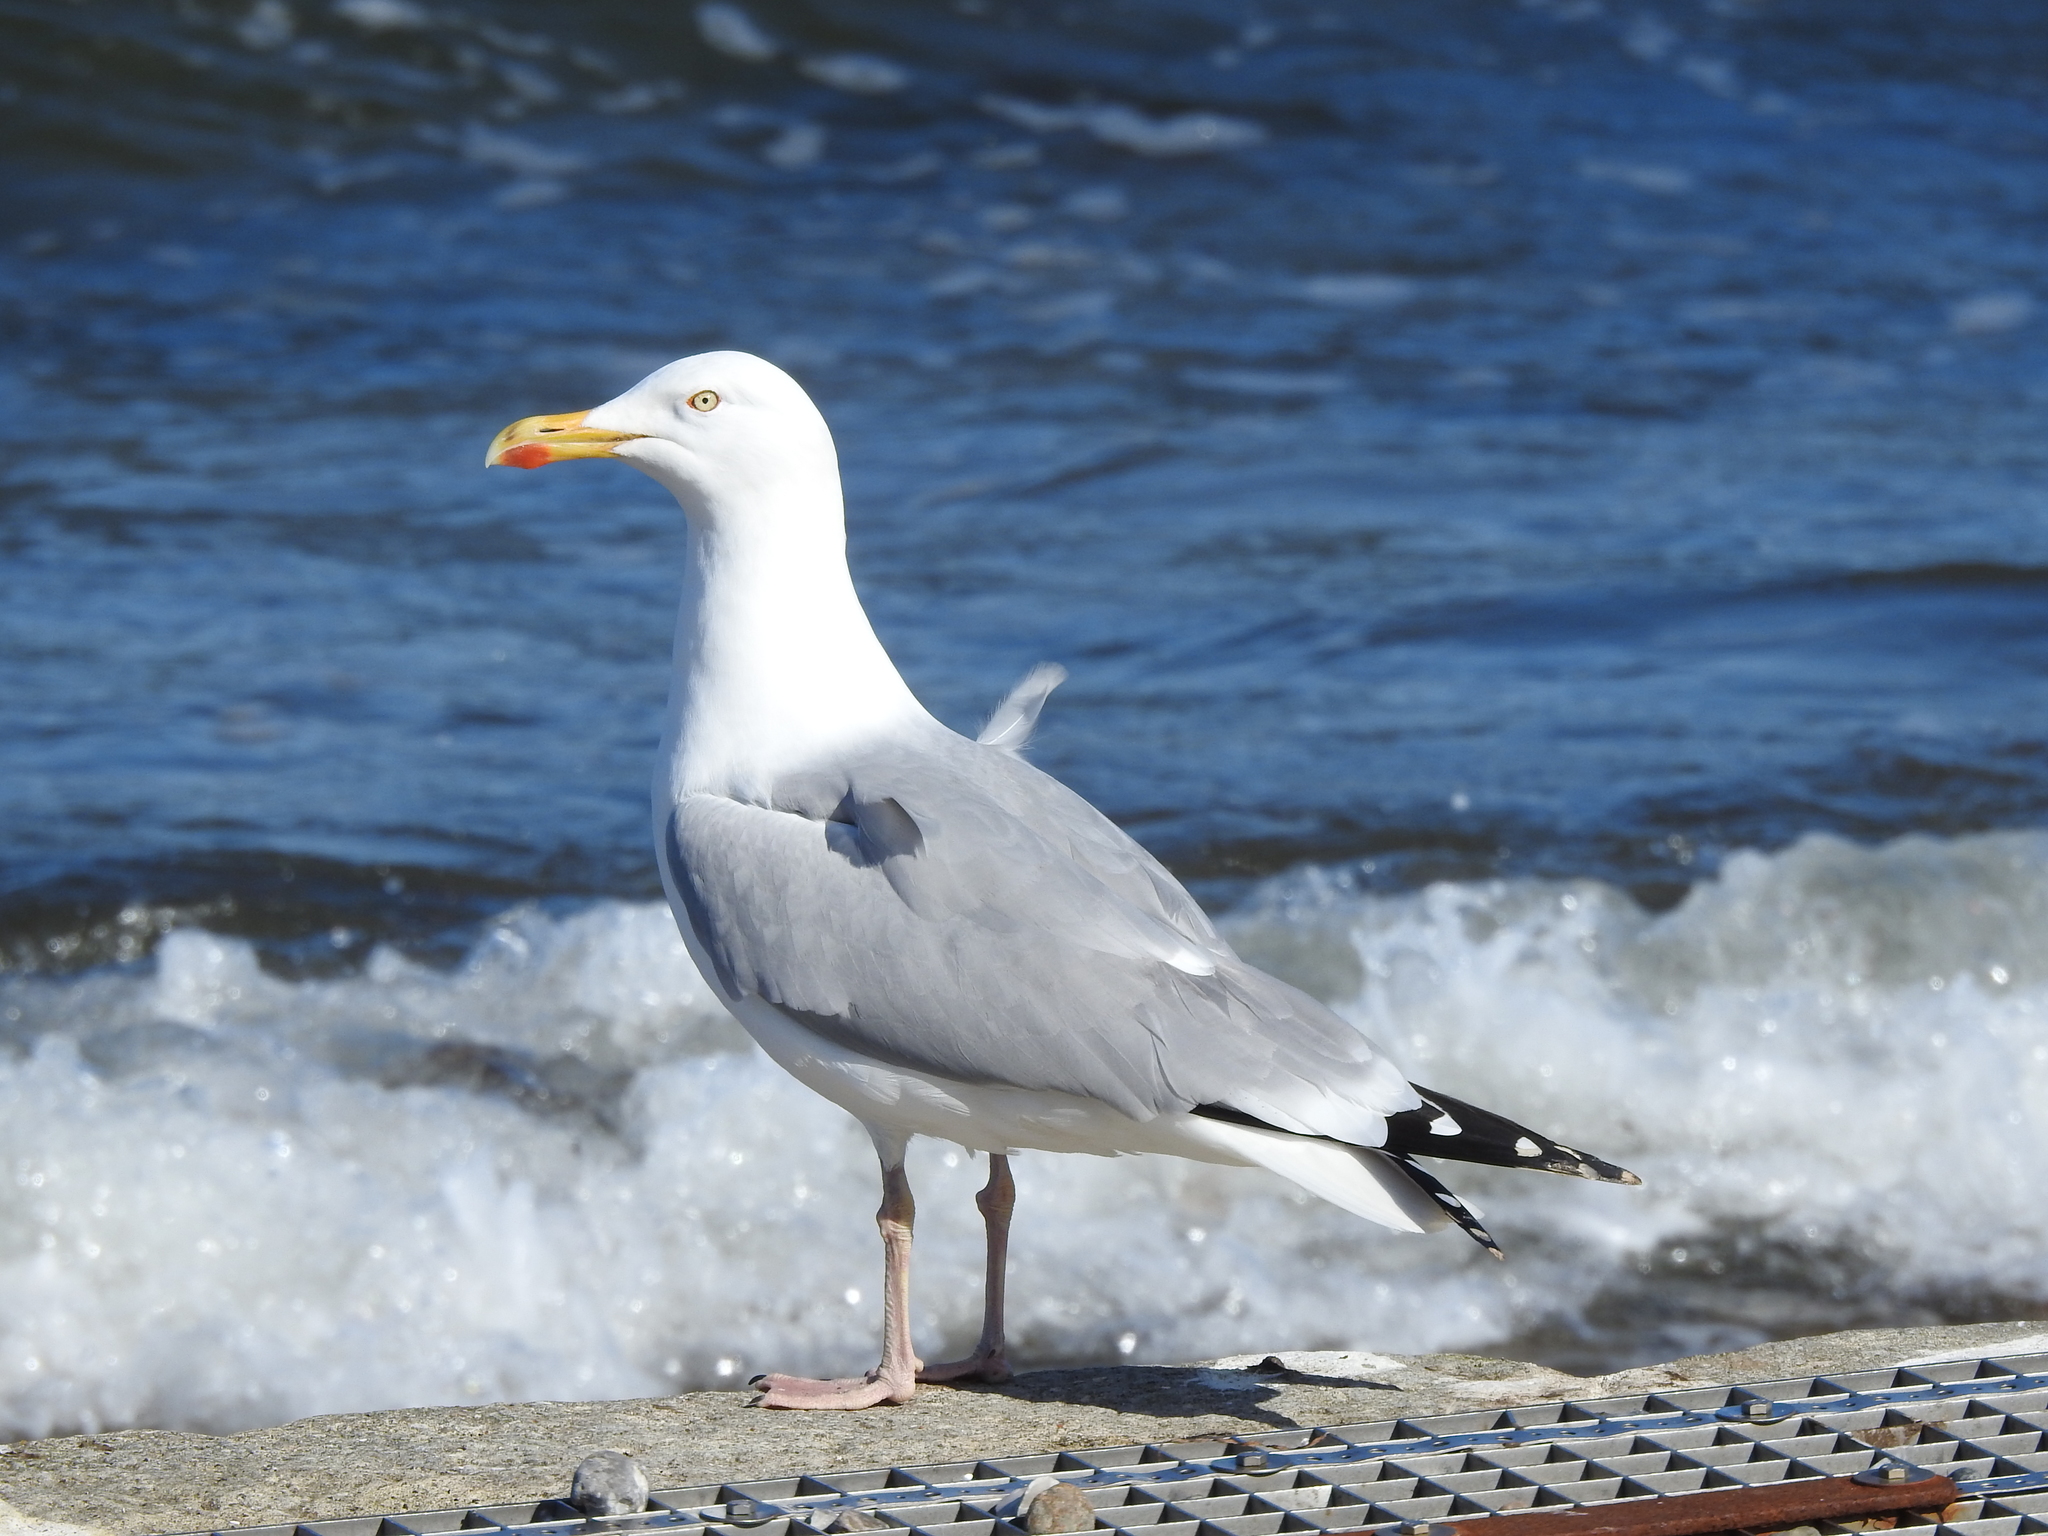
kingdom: Animalia
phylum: Chordata
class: Aves
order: Charadriiformes
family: Laridae
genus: Larus
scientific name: Larus argentatus
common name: Herring gull
